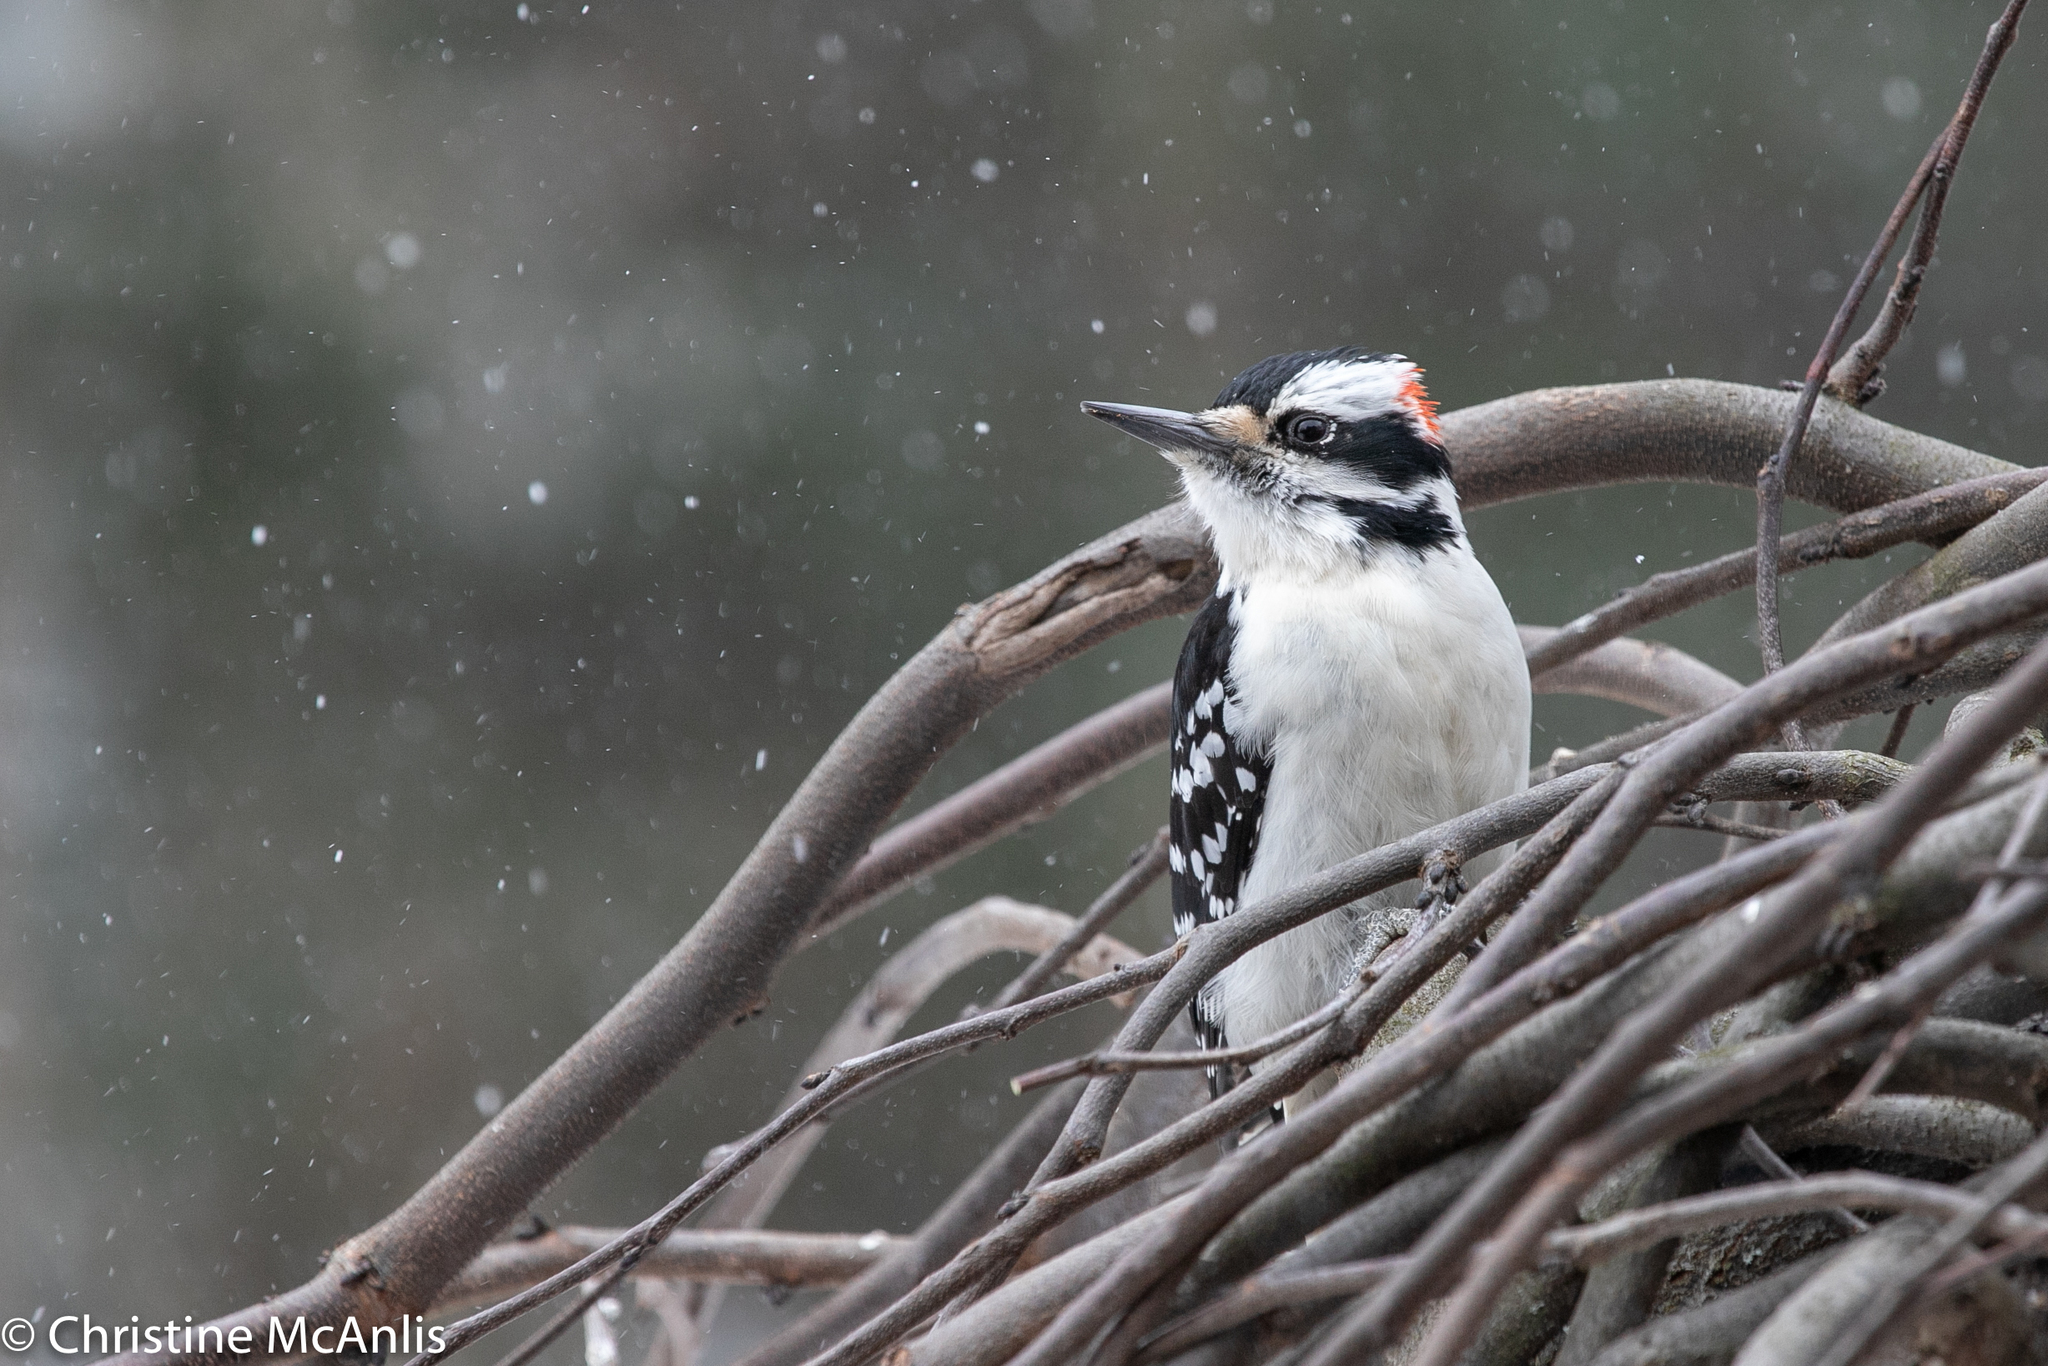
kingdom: Animalia
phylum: Chordata
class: Aves
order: Piciformes
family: Picidae
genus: Leuconotopicus
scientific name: Leuconotopicus villosus
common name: Hairy woodpecker
